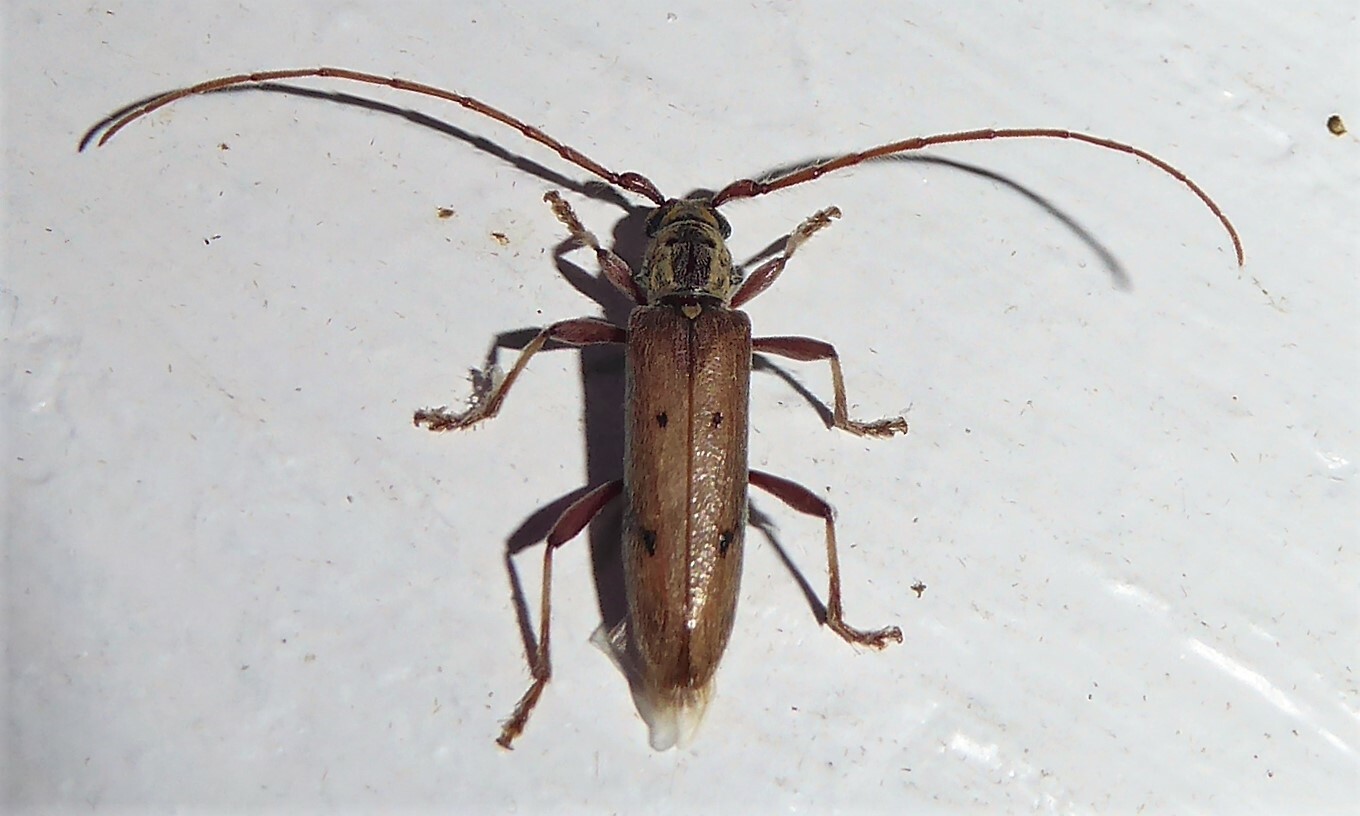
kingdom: Animalia
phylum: Arthropoda
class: Insecta
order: Coleoptera
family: Cerambycidae
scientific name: Cerambycidae
